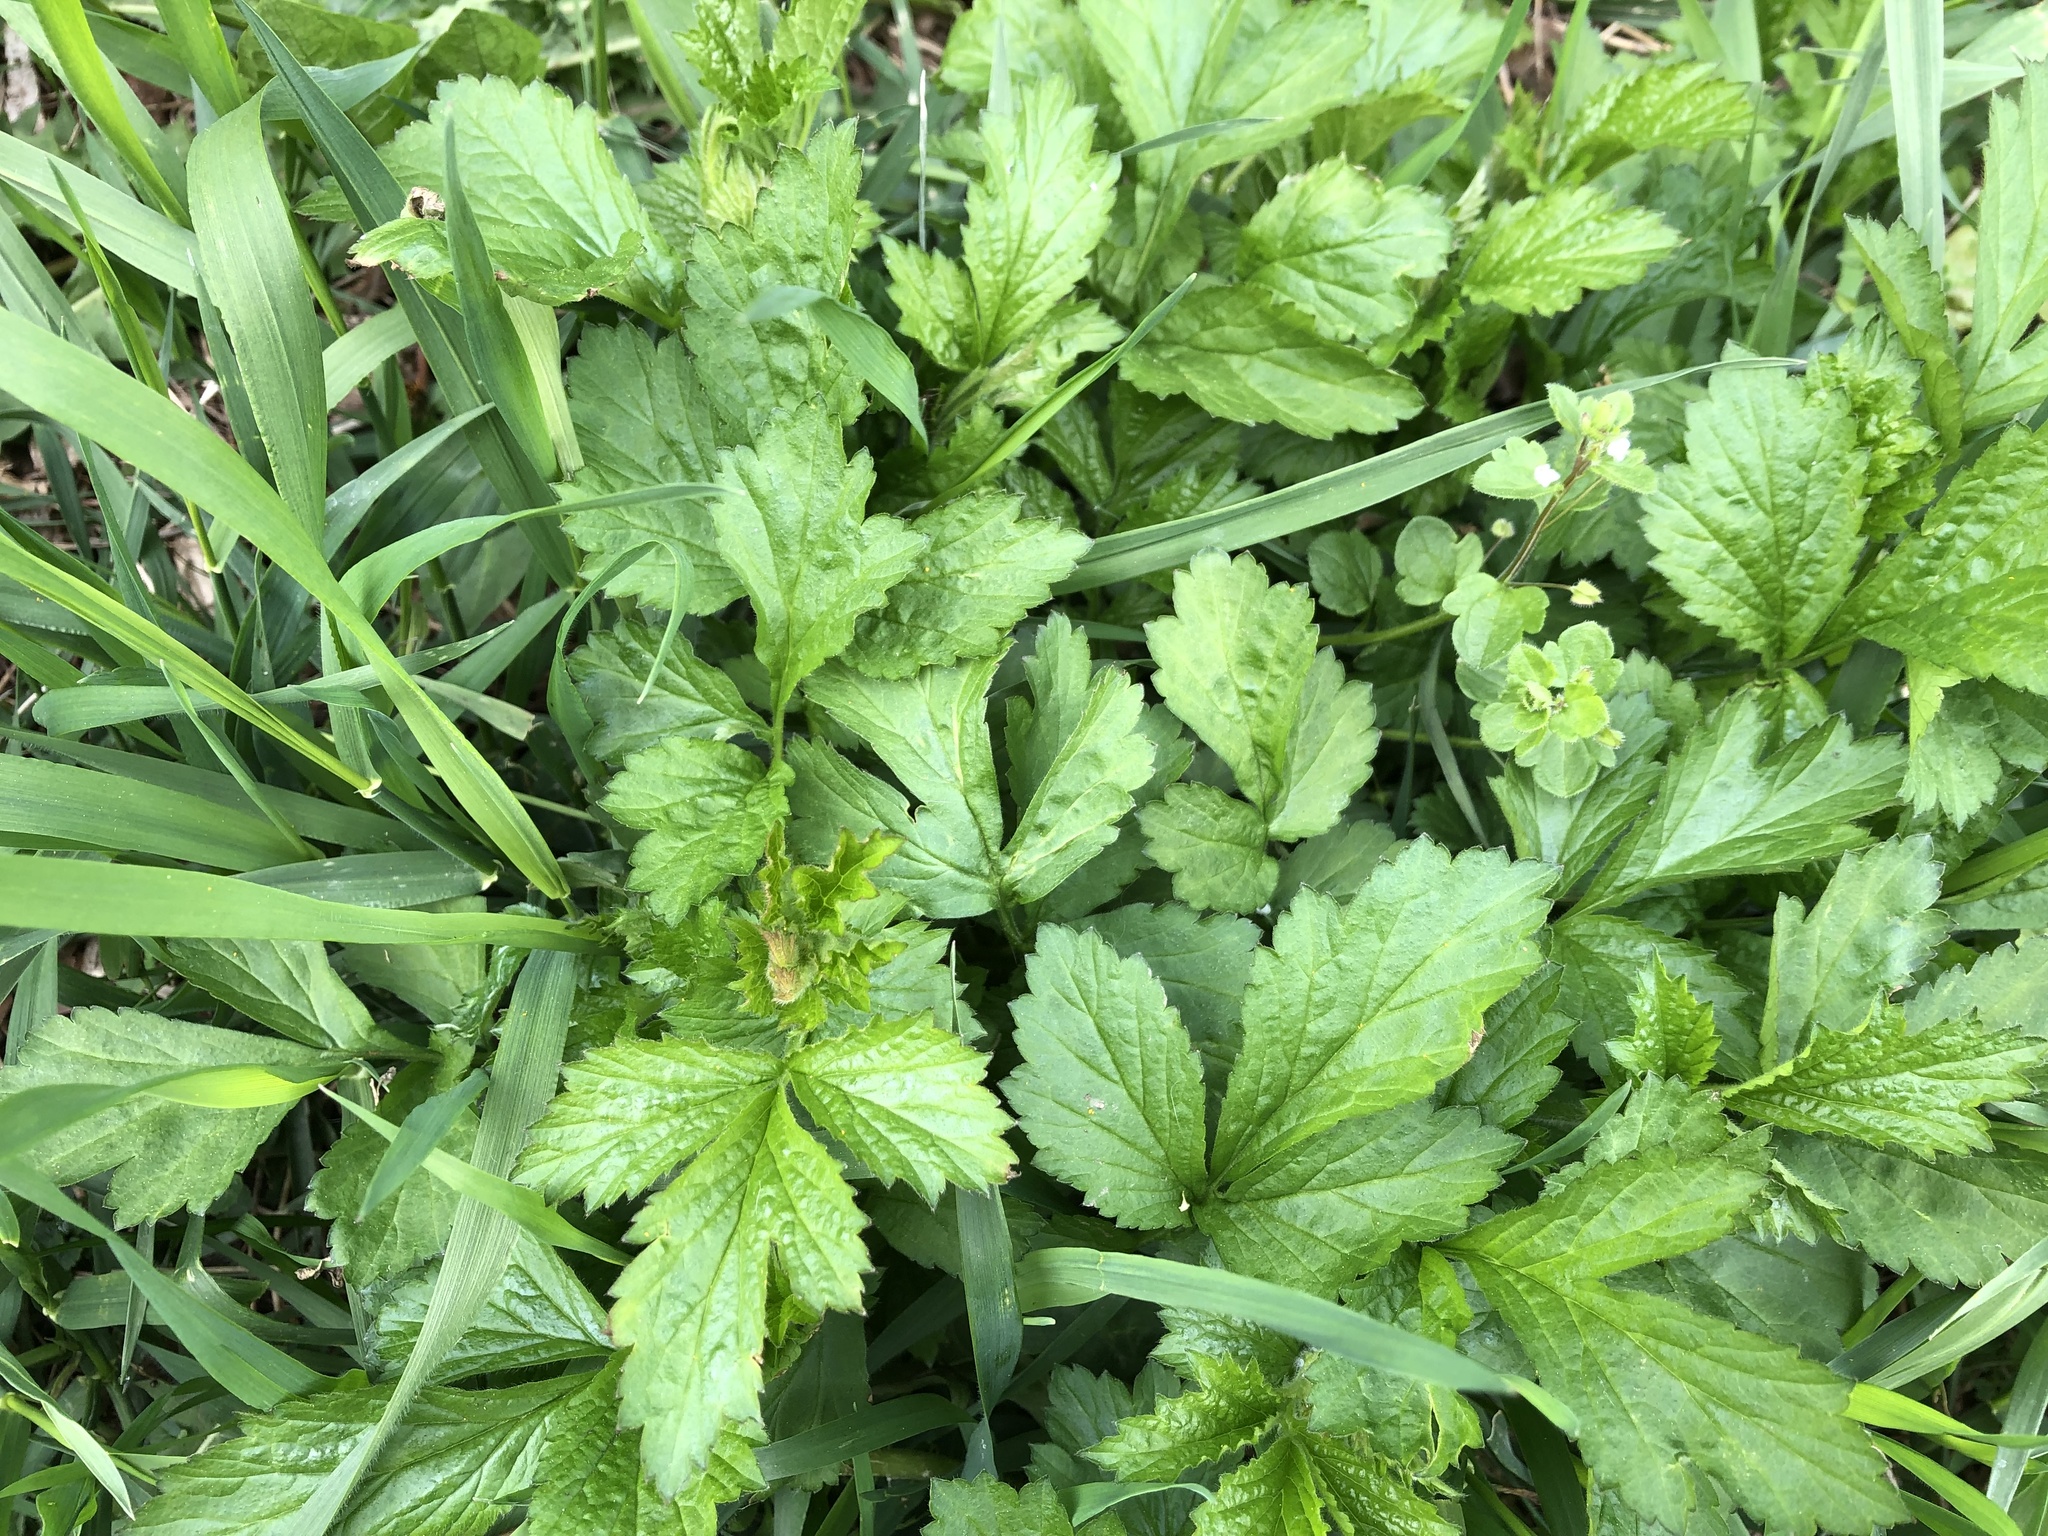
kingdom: Plantae
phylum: Tracheophyta
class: Magnoliopsida
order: Rosales
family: Rosaceae
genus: Geum
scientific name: Geum urbanum
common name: Wood avens
